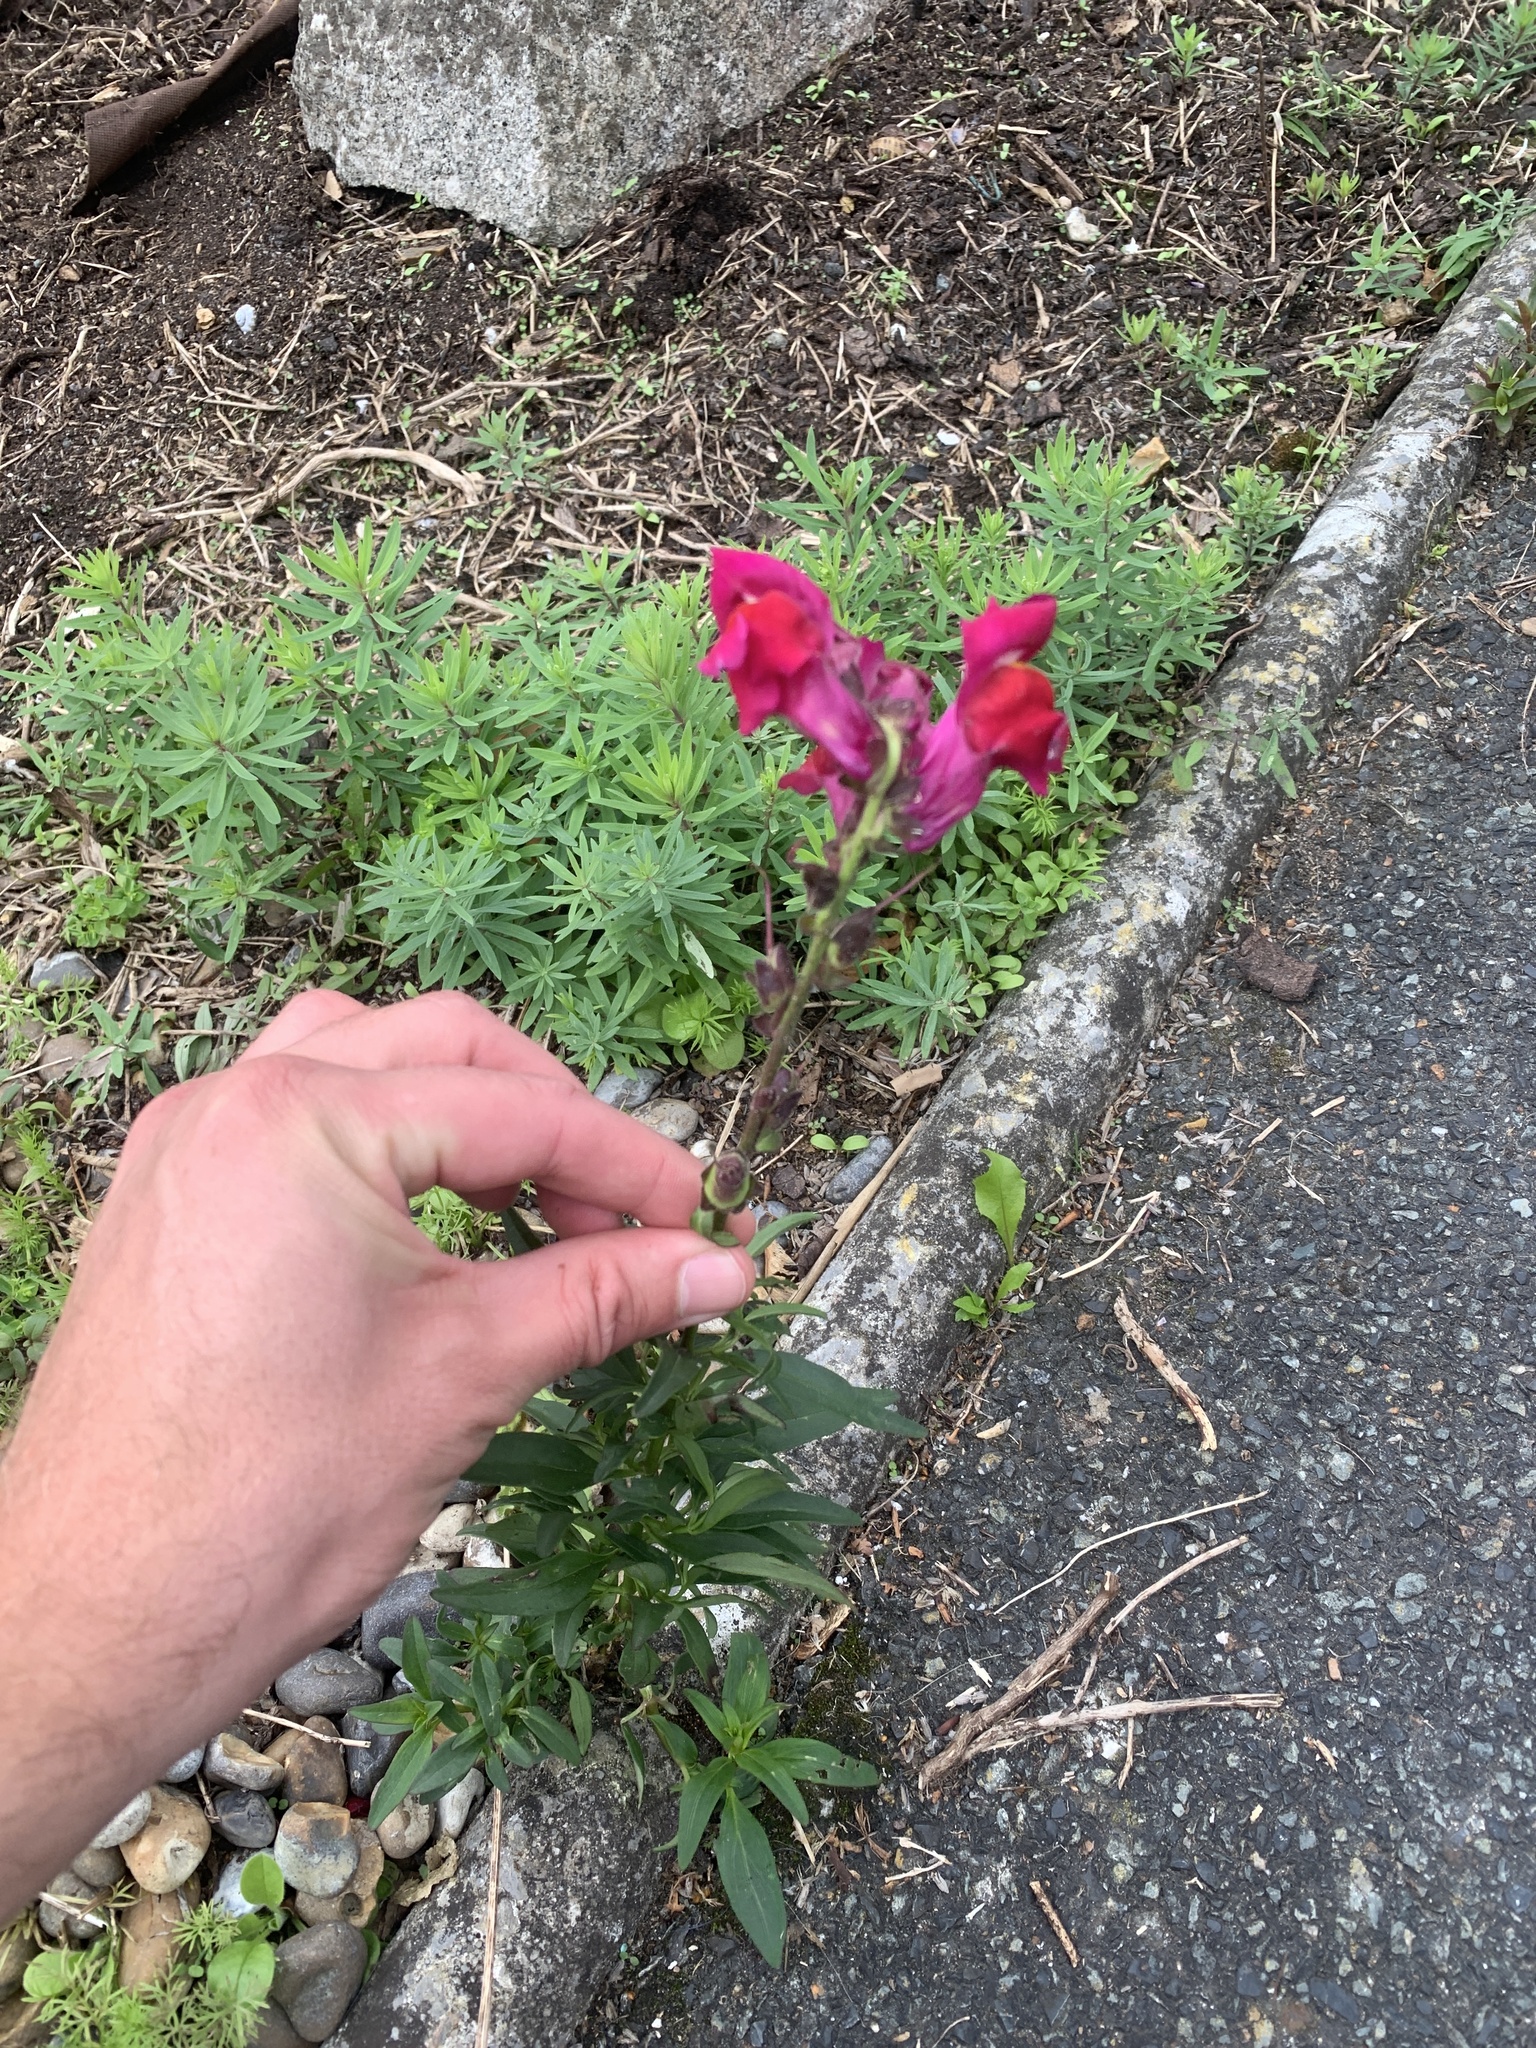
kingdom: Plantae
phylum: Tracheophyta
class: Magnoliopsida
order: Lamiales
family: Plantaginaceae
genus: Antirrhinum
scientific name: Antirrhinum majus
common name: Snapdragon
